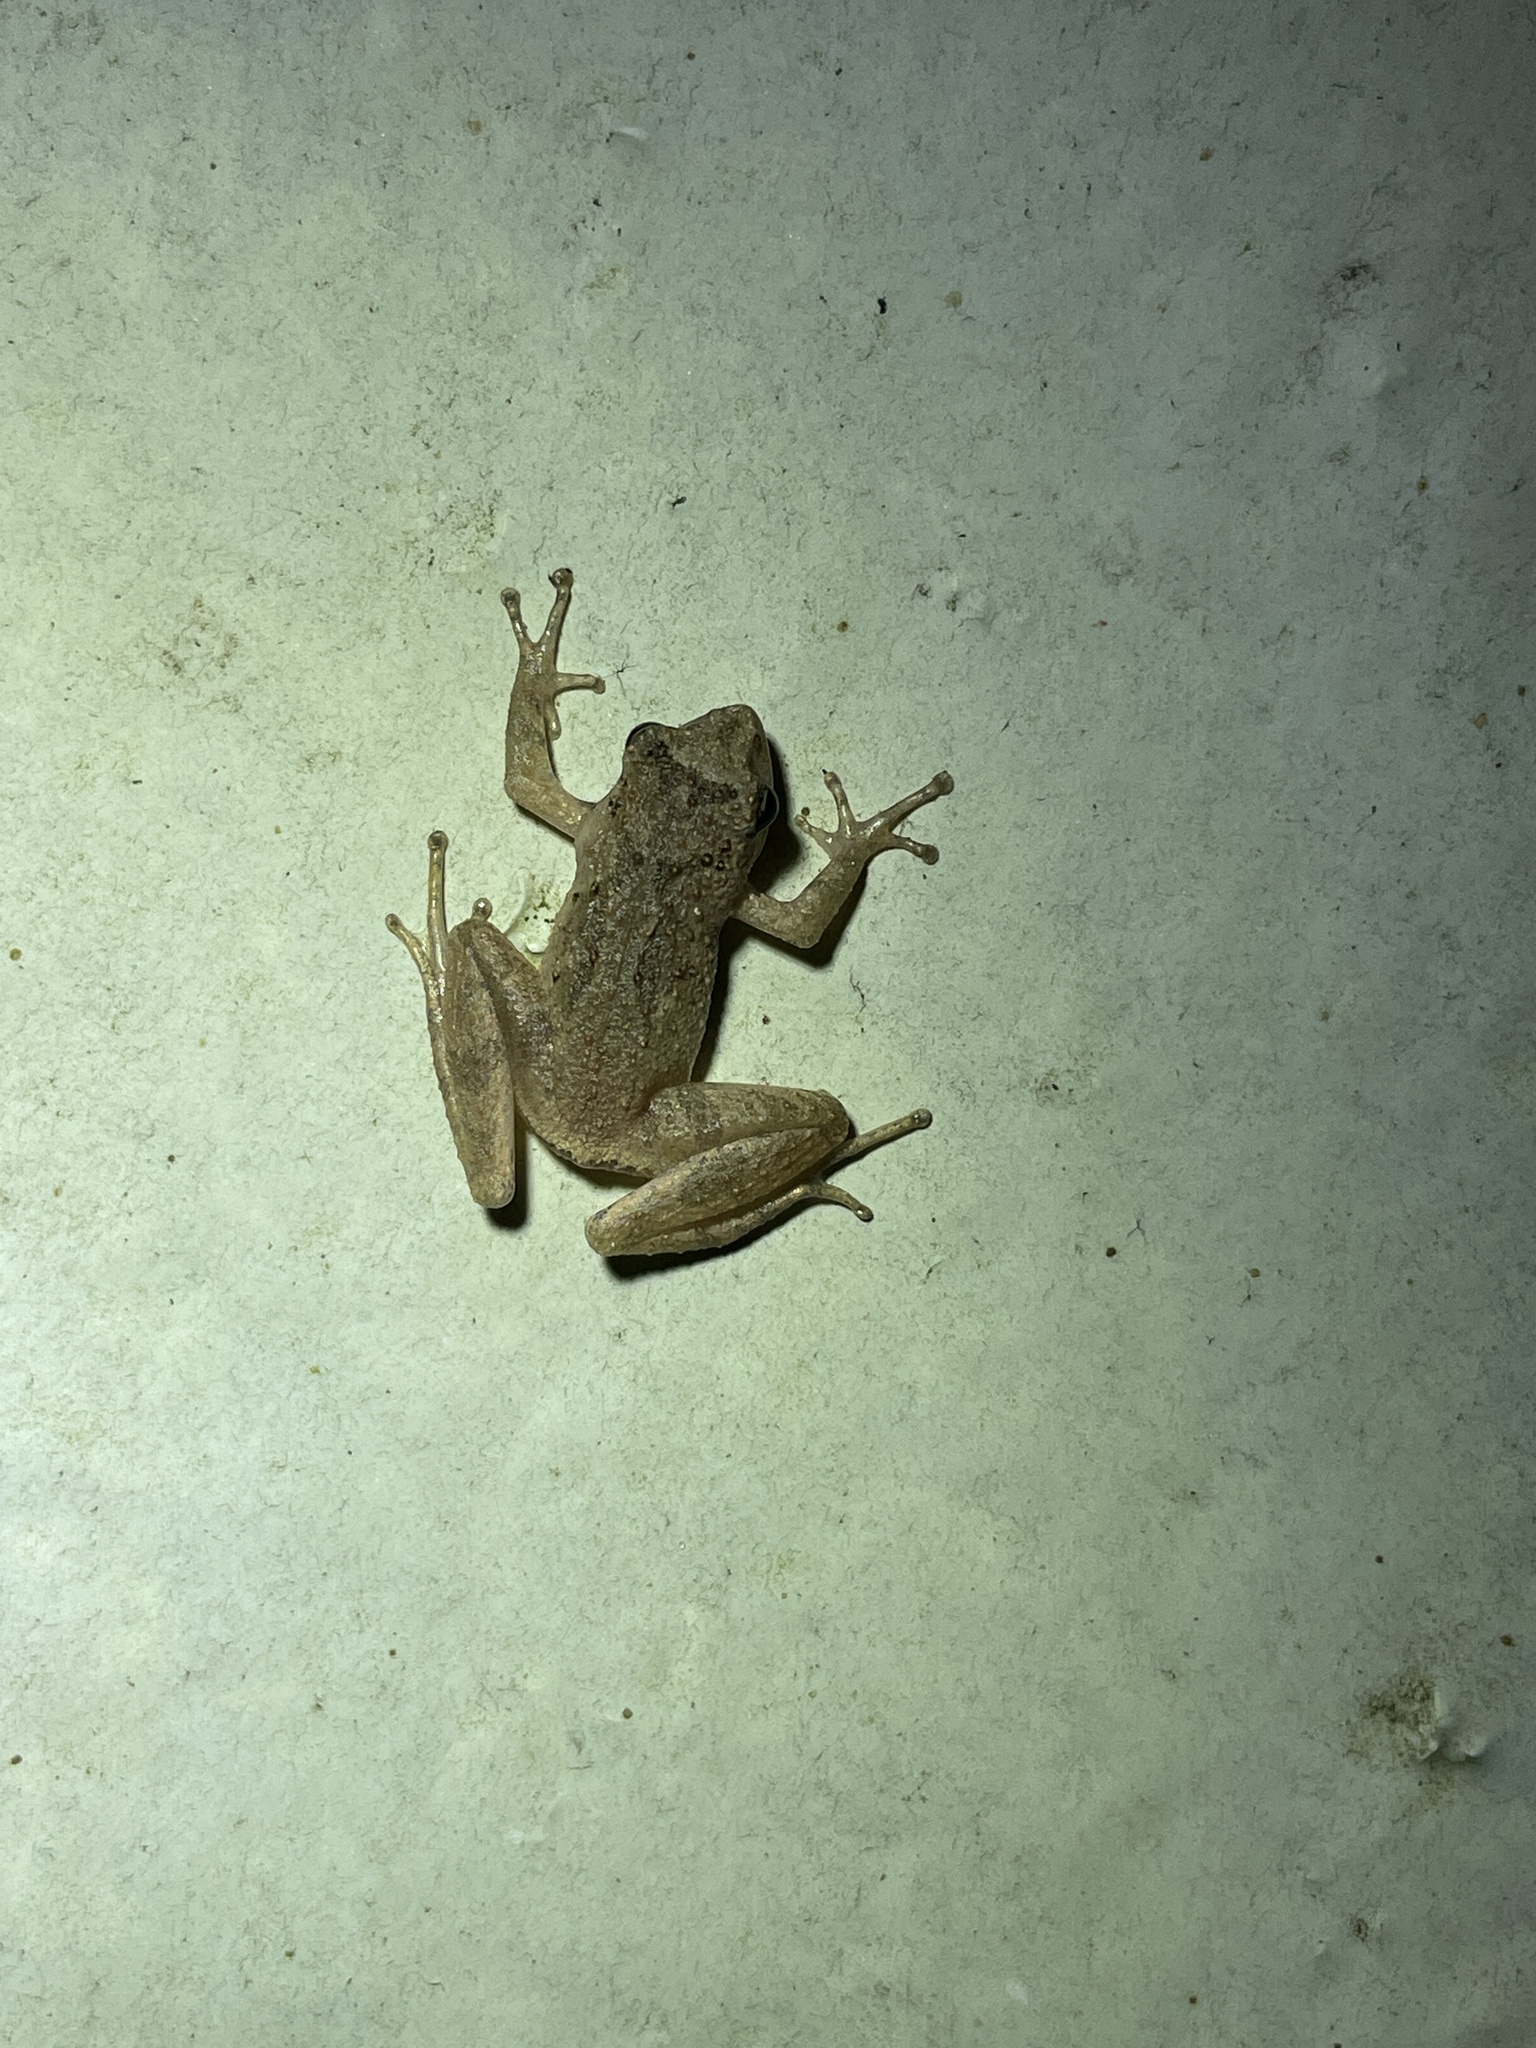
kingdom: Animalia
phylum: Chordata
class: Amphibia
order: Anura
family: Rhacophoridae
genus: Liuixalus
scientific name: Liuixalus romeri
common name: Romer's bubble-nest frog
